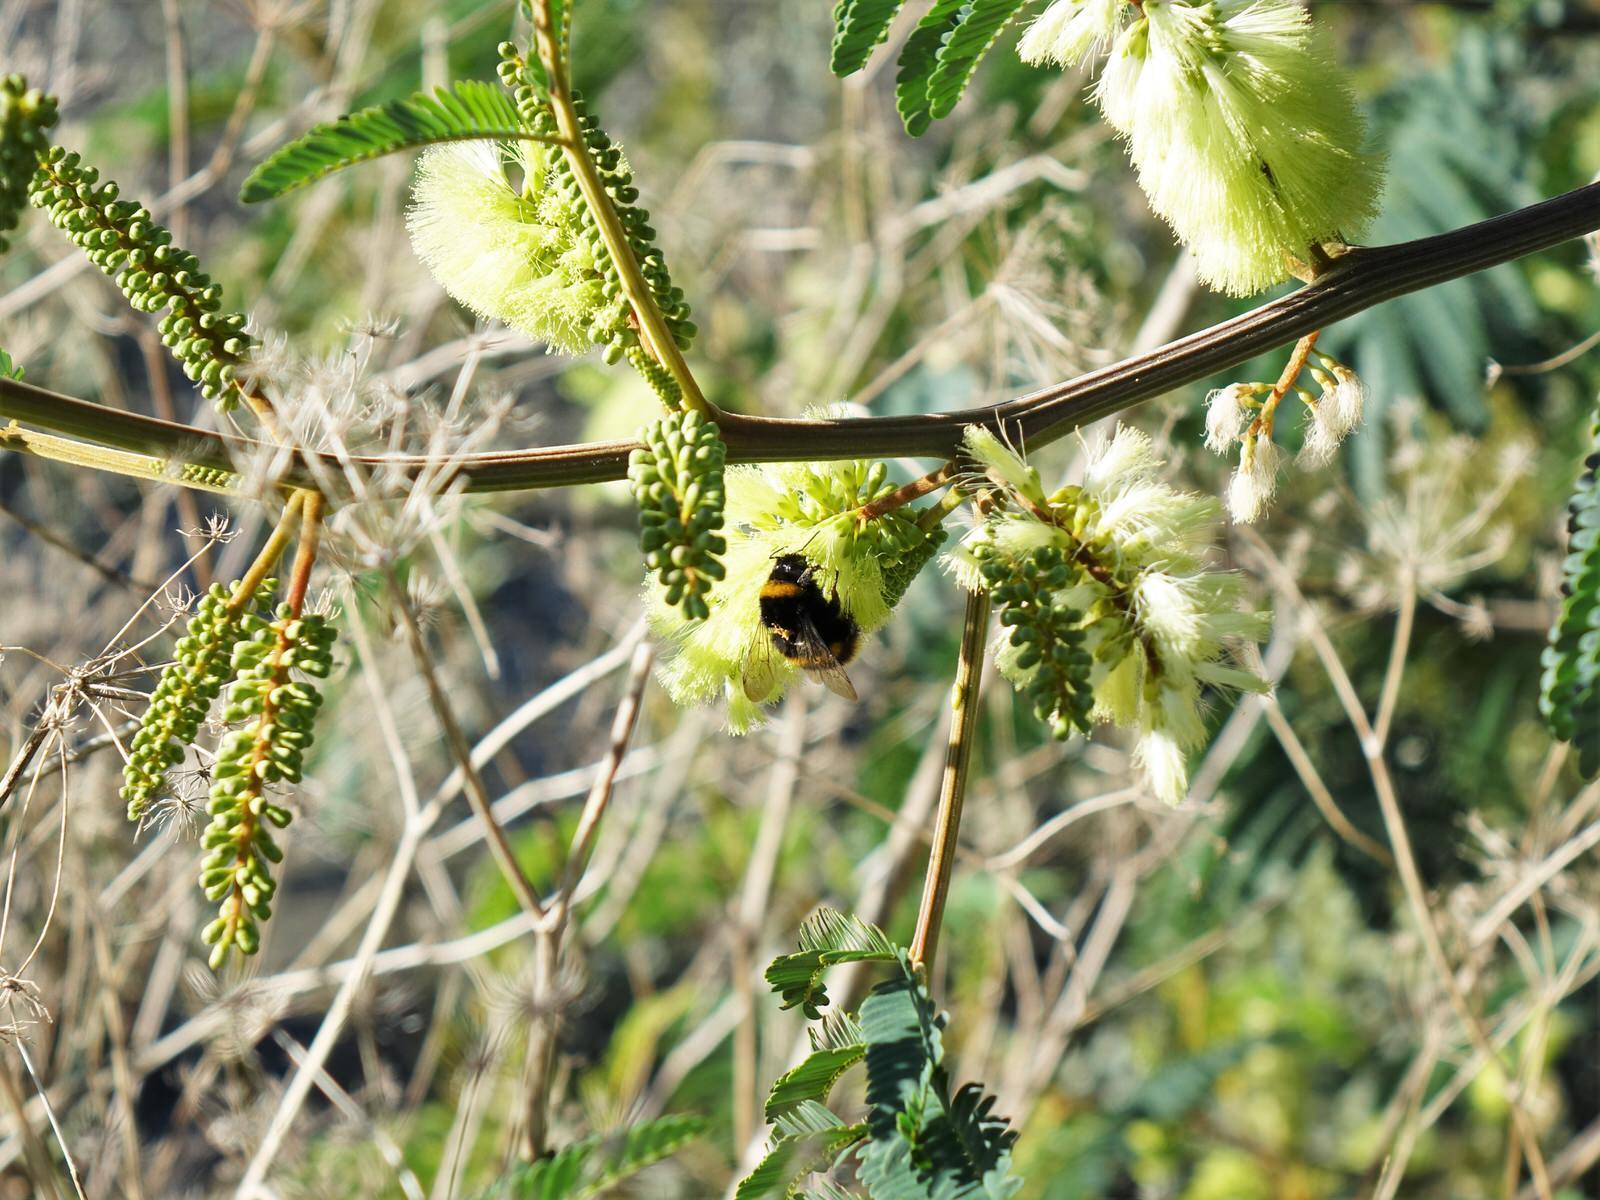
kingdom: Plantae
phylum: Tracheophyta
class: Magnoliopsida
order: Fabales
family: Fabaceae
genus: Paraserianthes
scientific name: Paraserianthes lophantha
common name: Plume albizia
